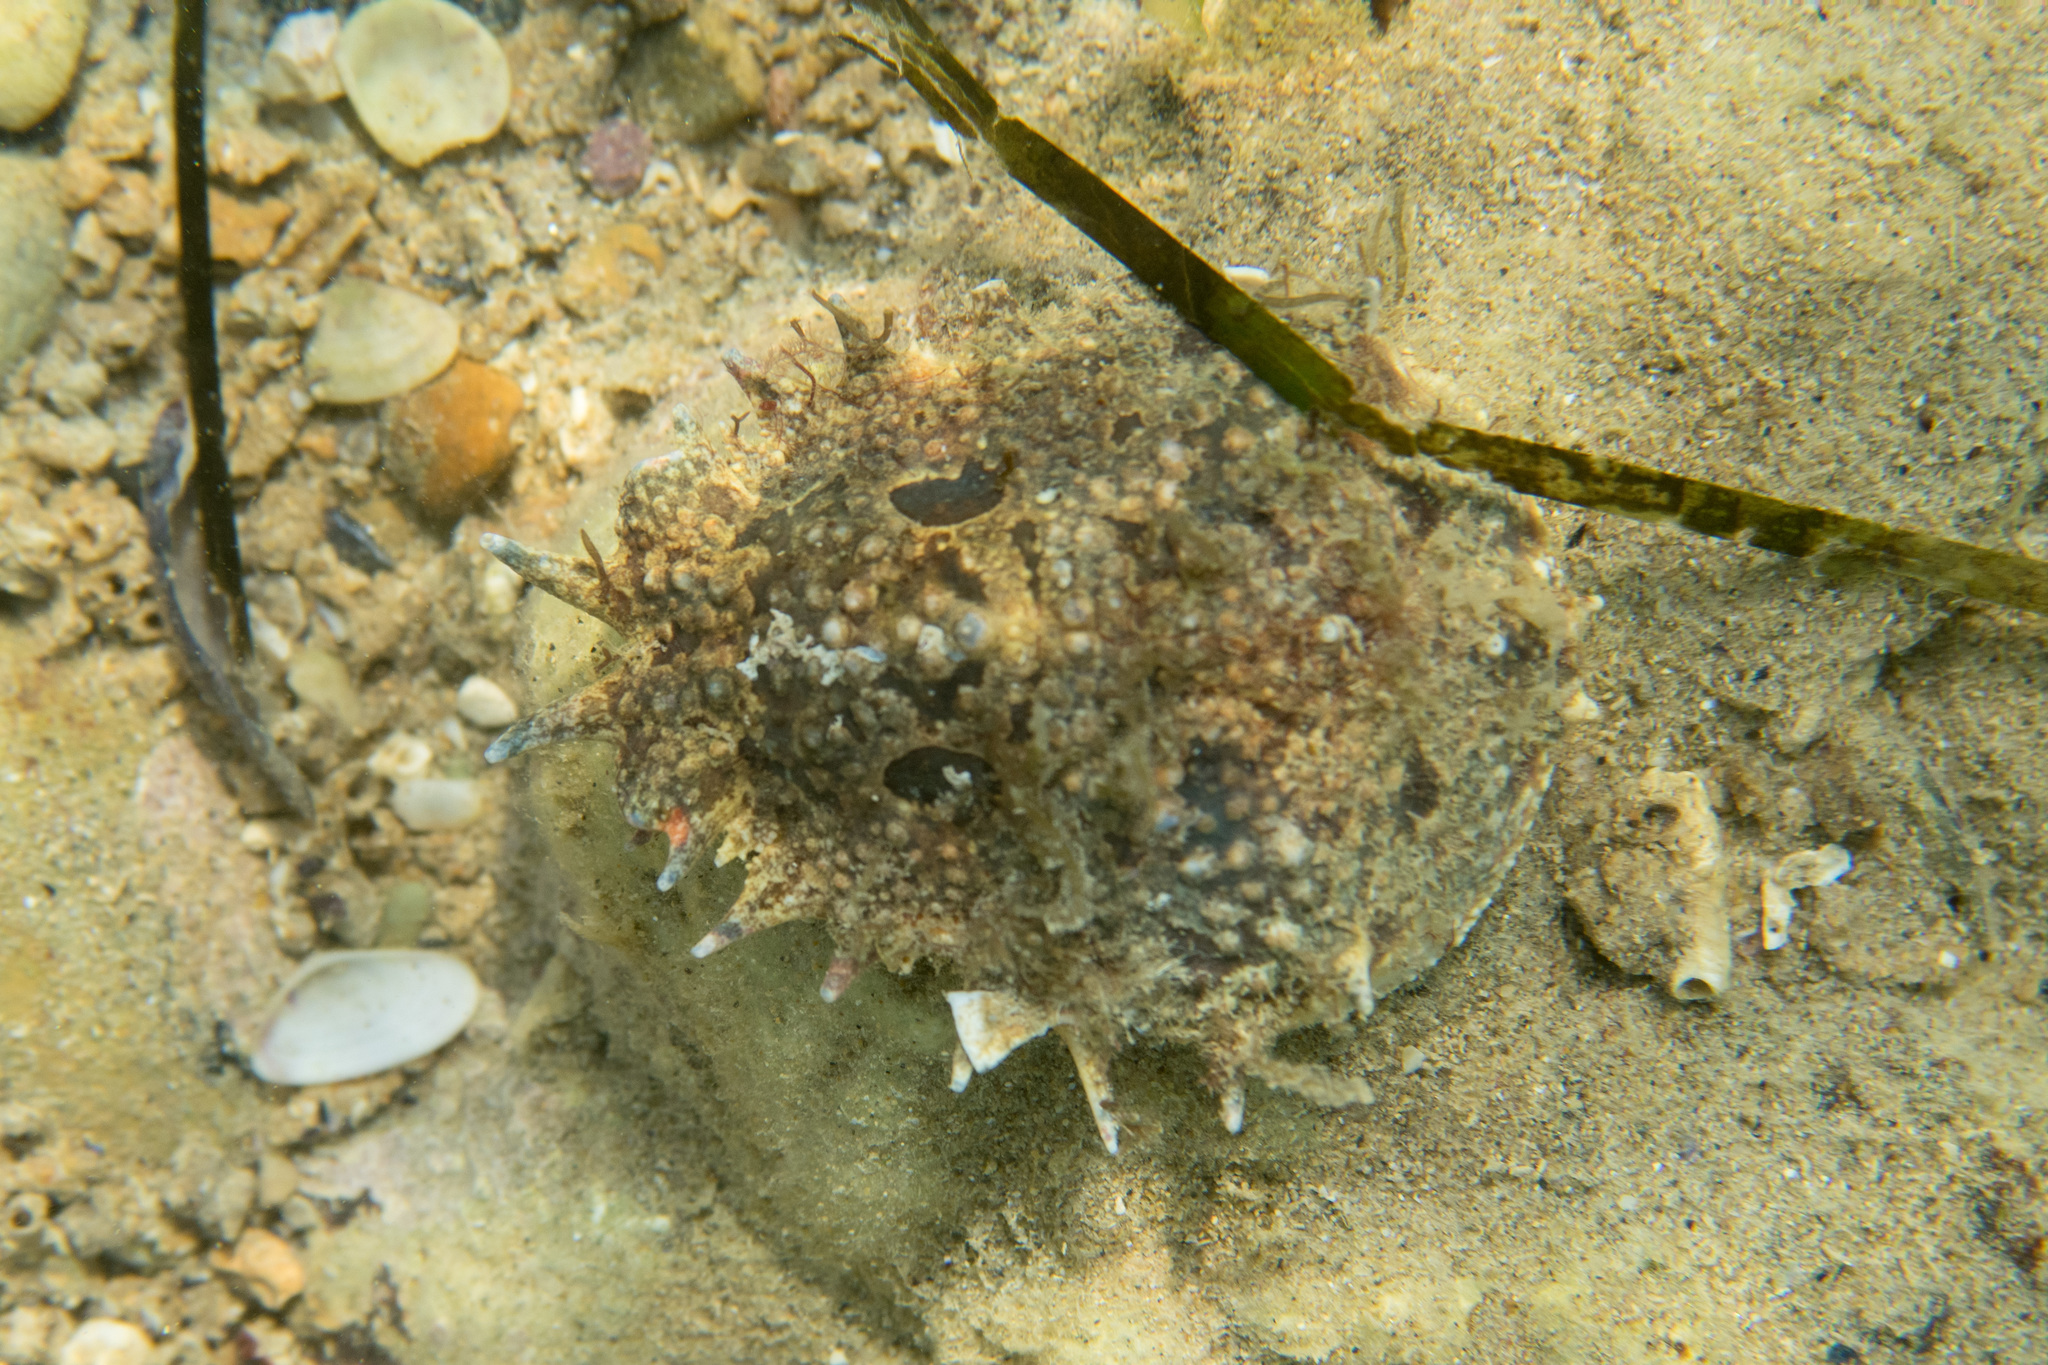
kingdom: Animalia
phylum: Arthropoda
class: Malacostraca
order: Decapoda
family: Majidae
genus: Maja
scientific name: Maja crispata
